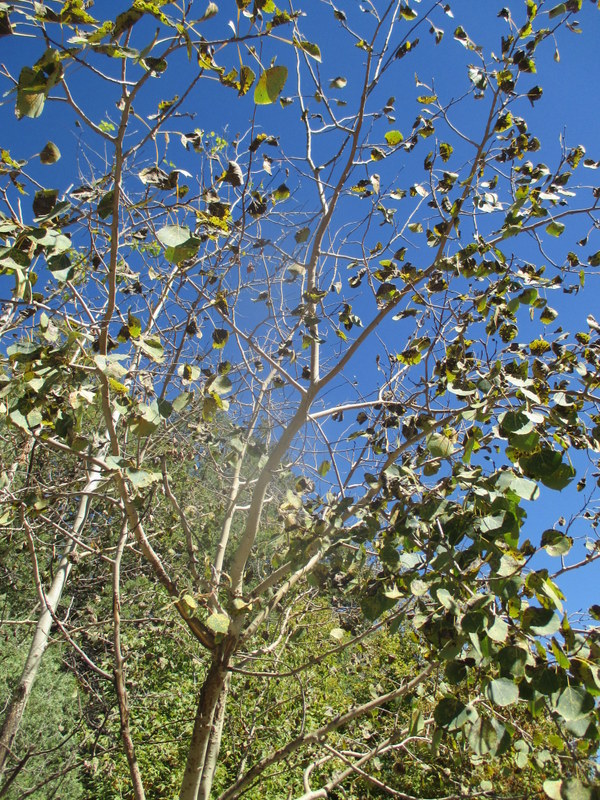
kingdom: Plantae
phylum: Tracheophyta
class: Magnoliopsida
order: Malpighiales
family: Salicaceae
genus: Populus
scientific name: Populus tremuloides
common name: Quaking aspen
